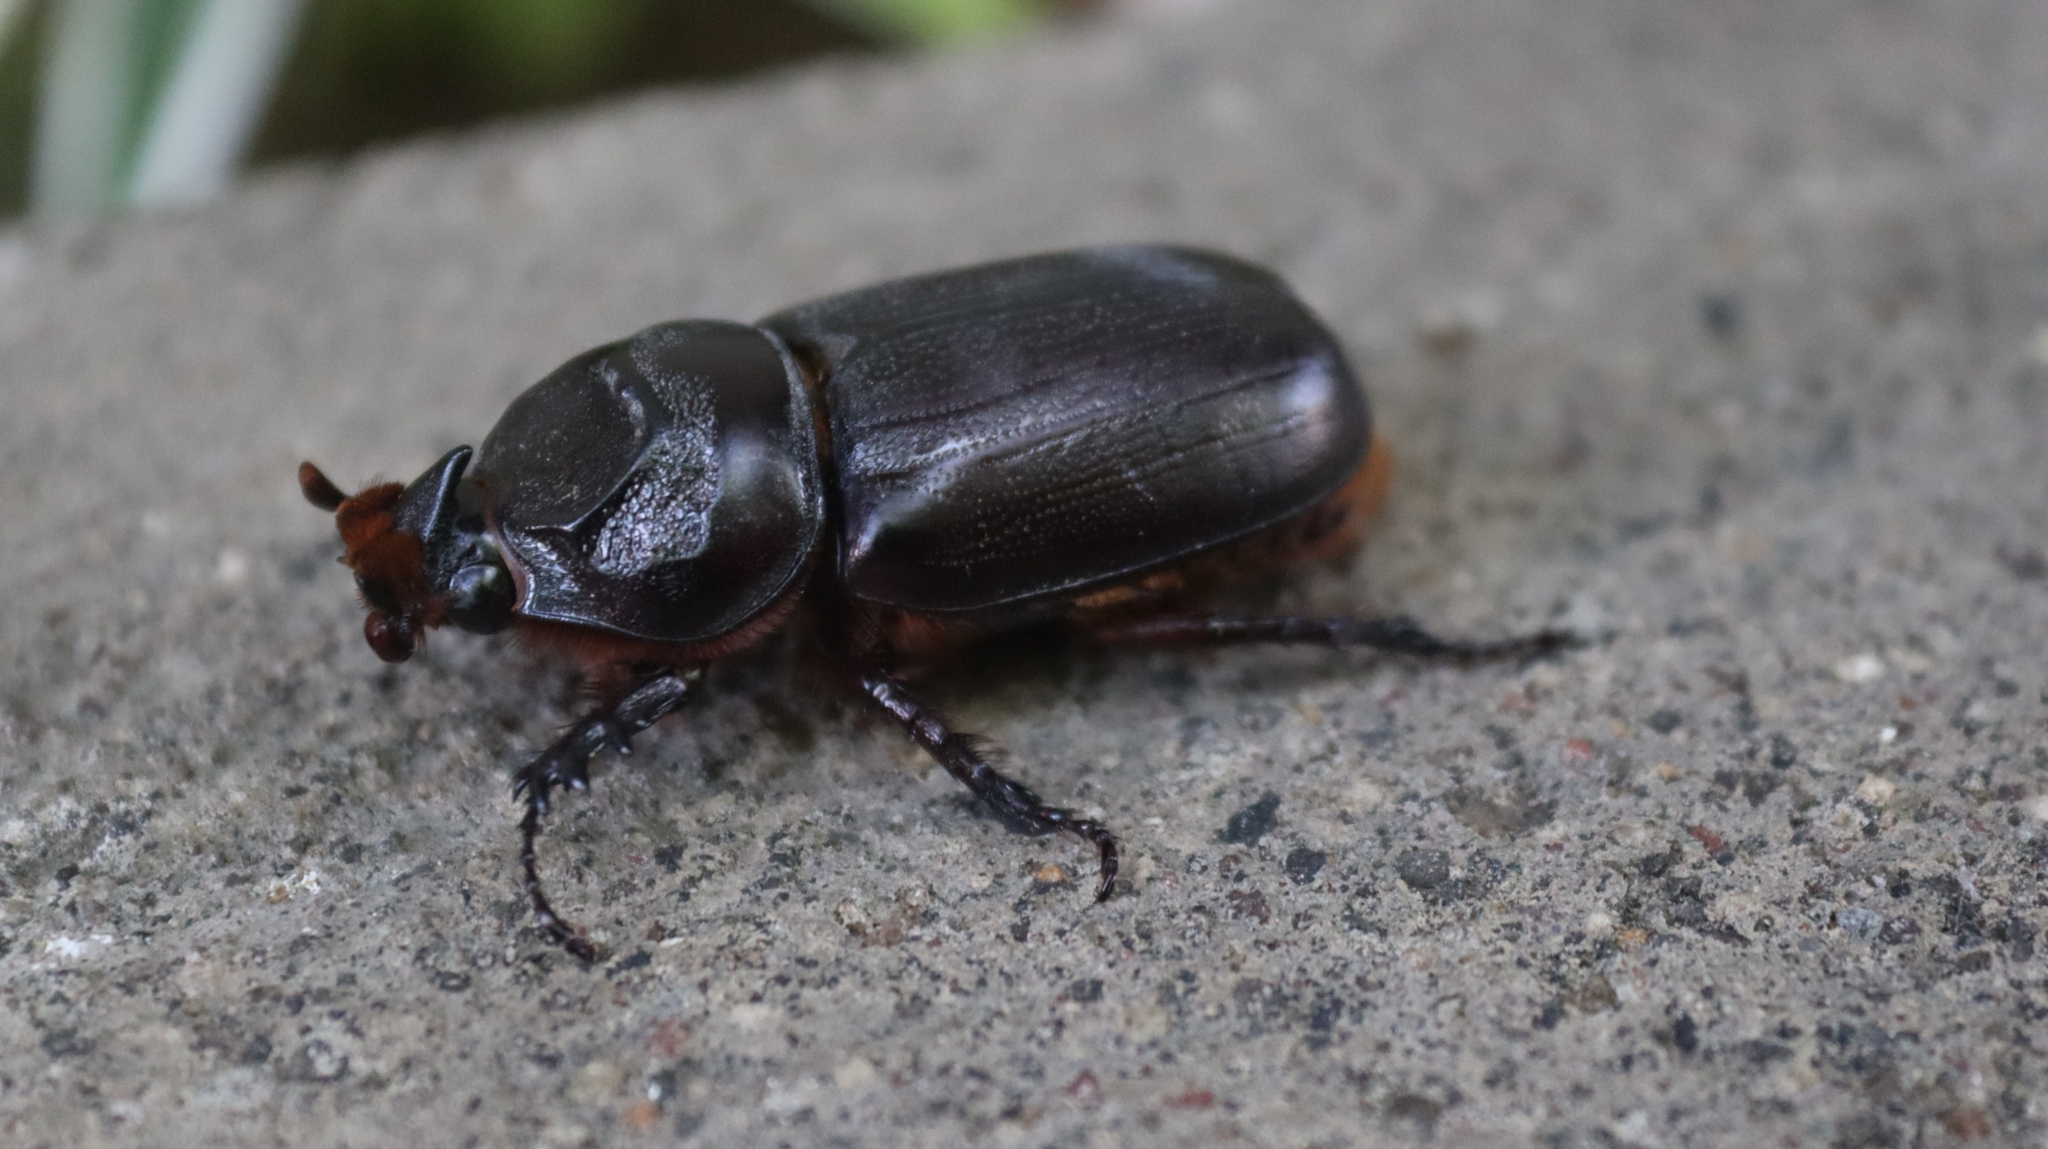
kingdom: Animalia
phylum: Arthropoda
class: Insecta
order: Coleoptera
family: Scarabaeidae
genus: Oryctes
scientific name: Oryctes rhinoceros
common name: Coconut rhinoceros beetle
